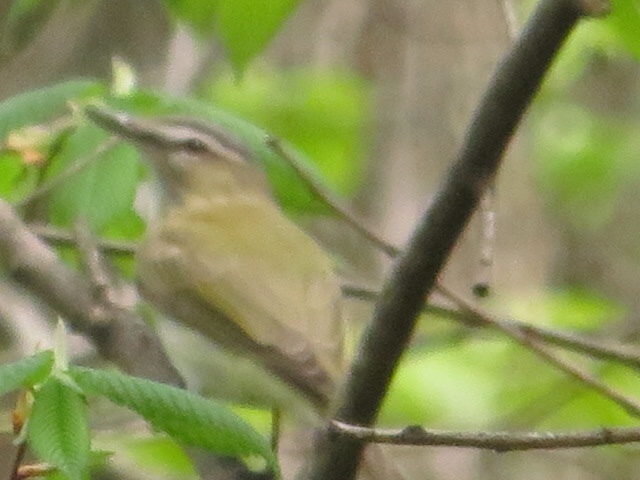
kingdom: Animalia
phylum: Chordata
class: Aves
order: Passeriformes
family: Vireonidae
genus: Vireo
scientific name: Vireo olivaceus
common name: Red-eyed vireo
